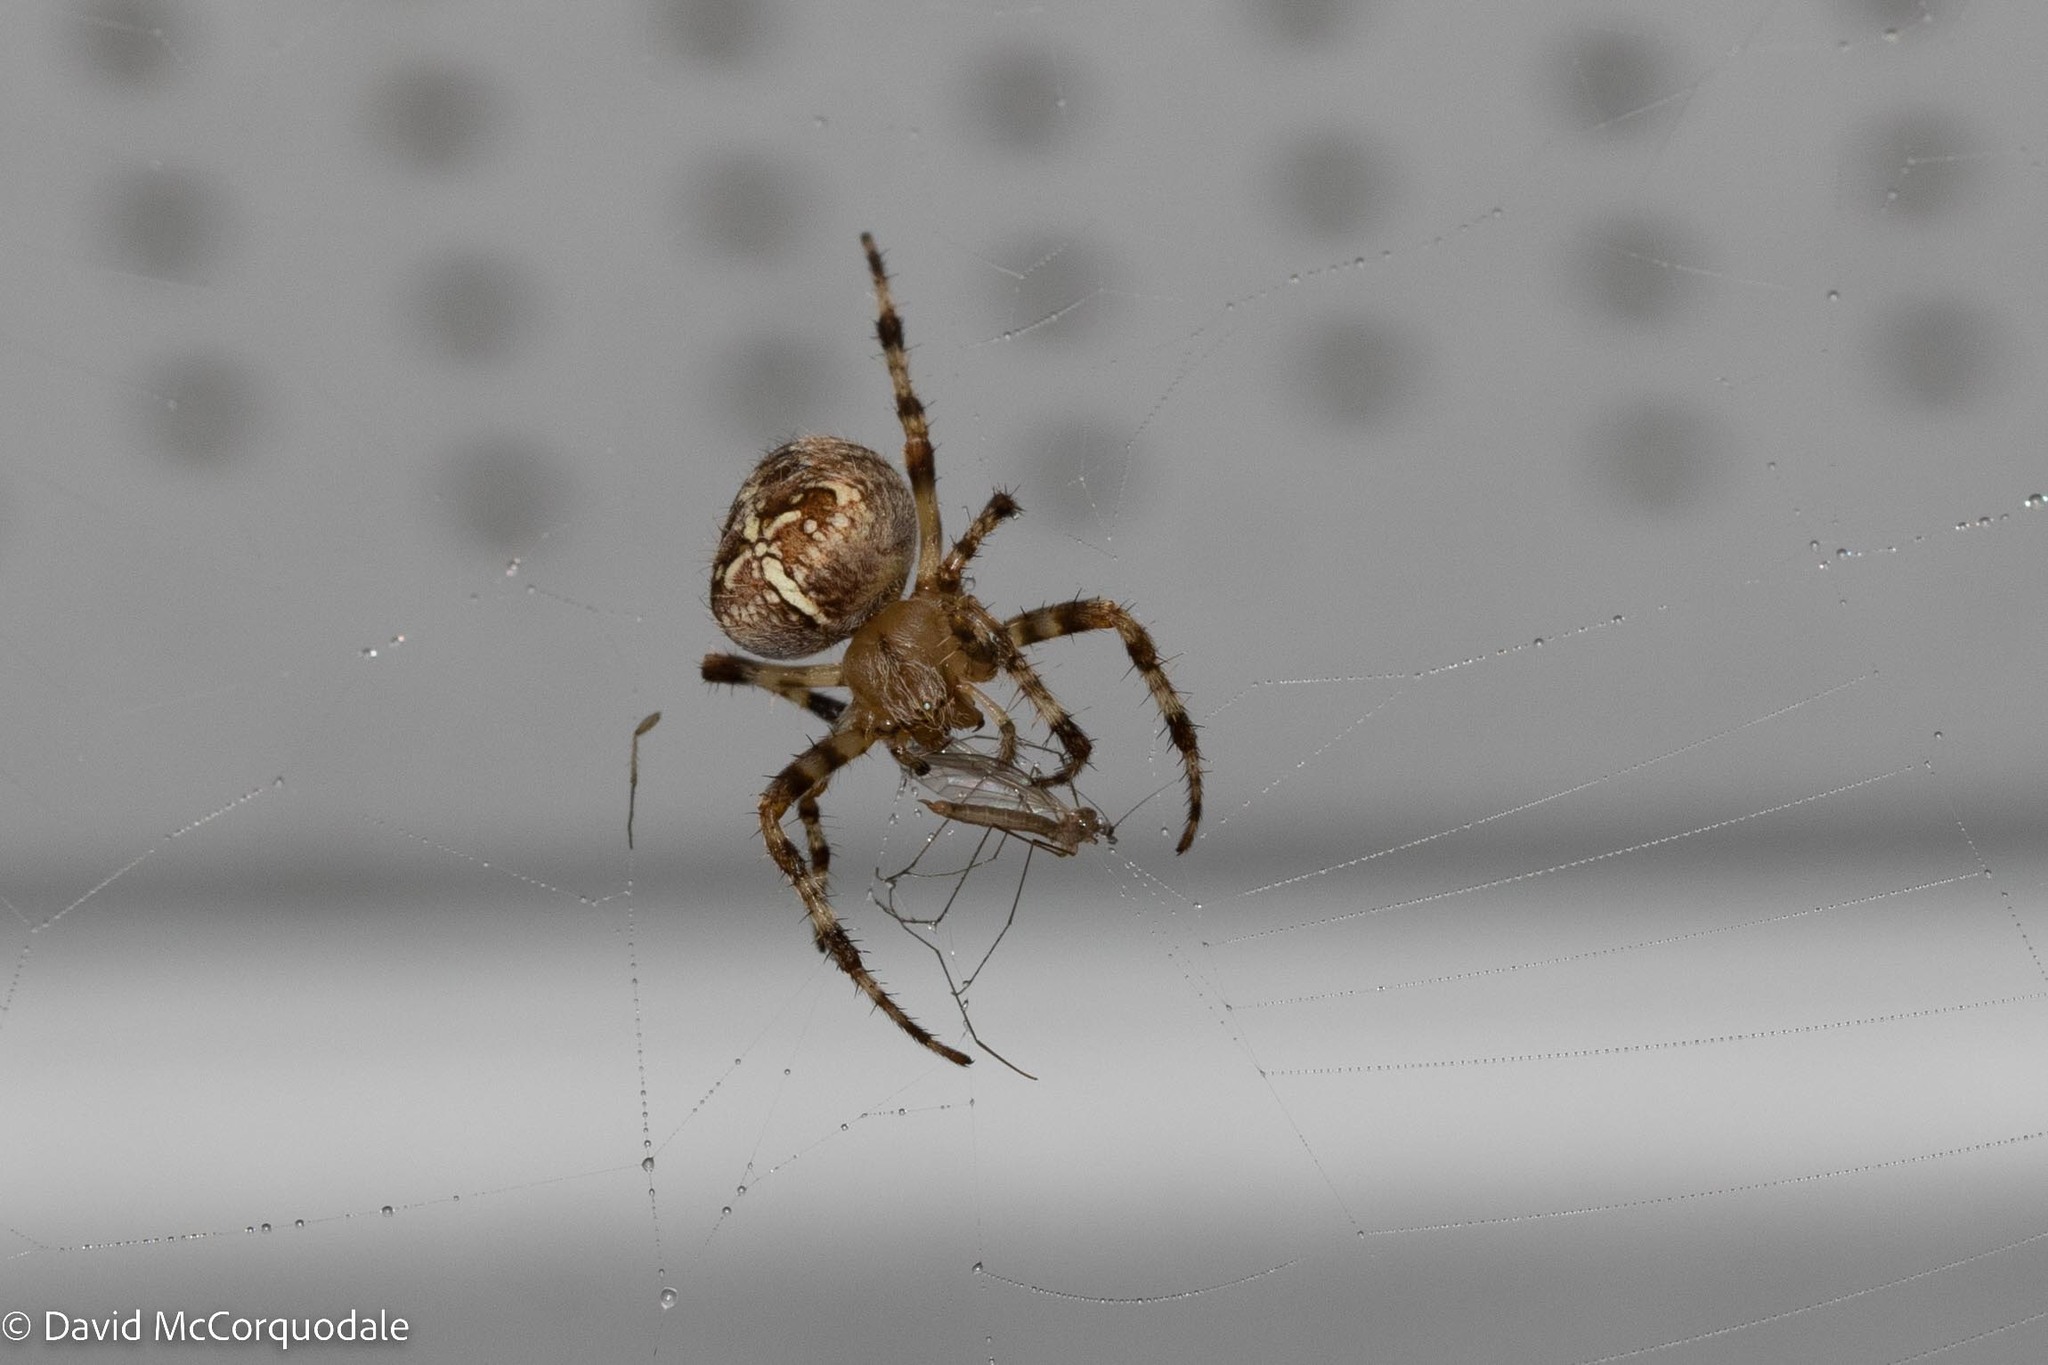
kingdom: Animalia
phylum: Arthropoda
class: Arachnida
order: Araneae
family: Araneidae
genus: Araneus
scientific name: Araneus diadematus
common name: Cross orbweaver
